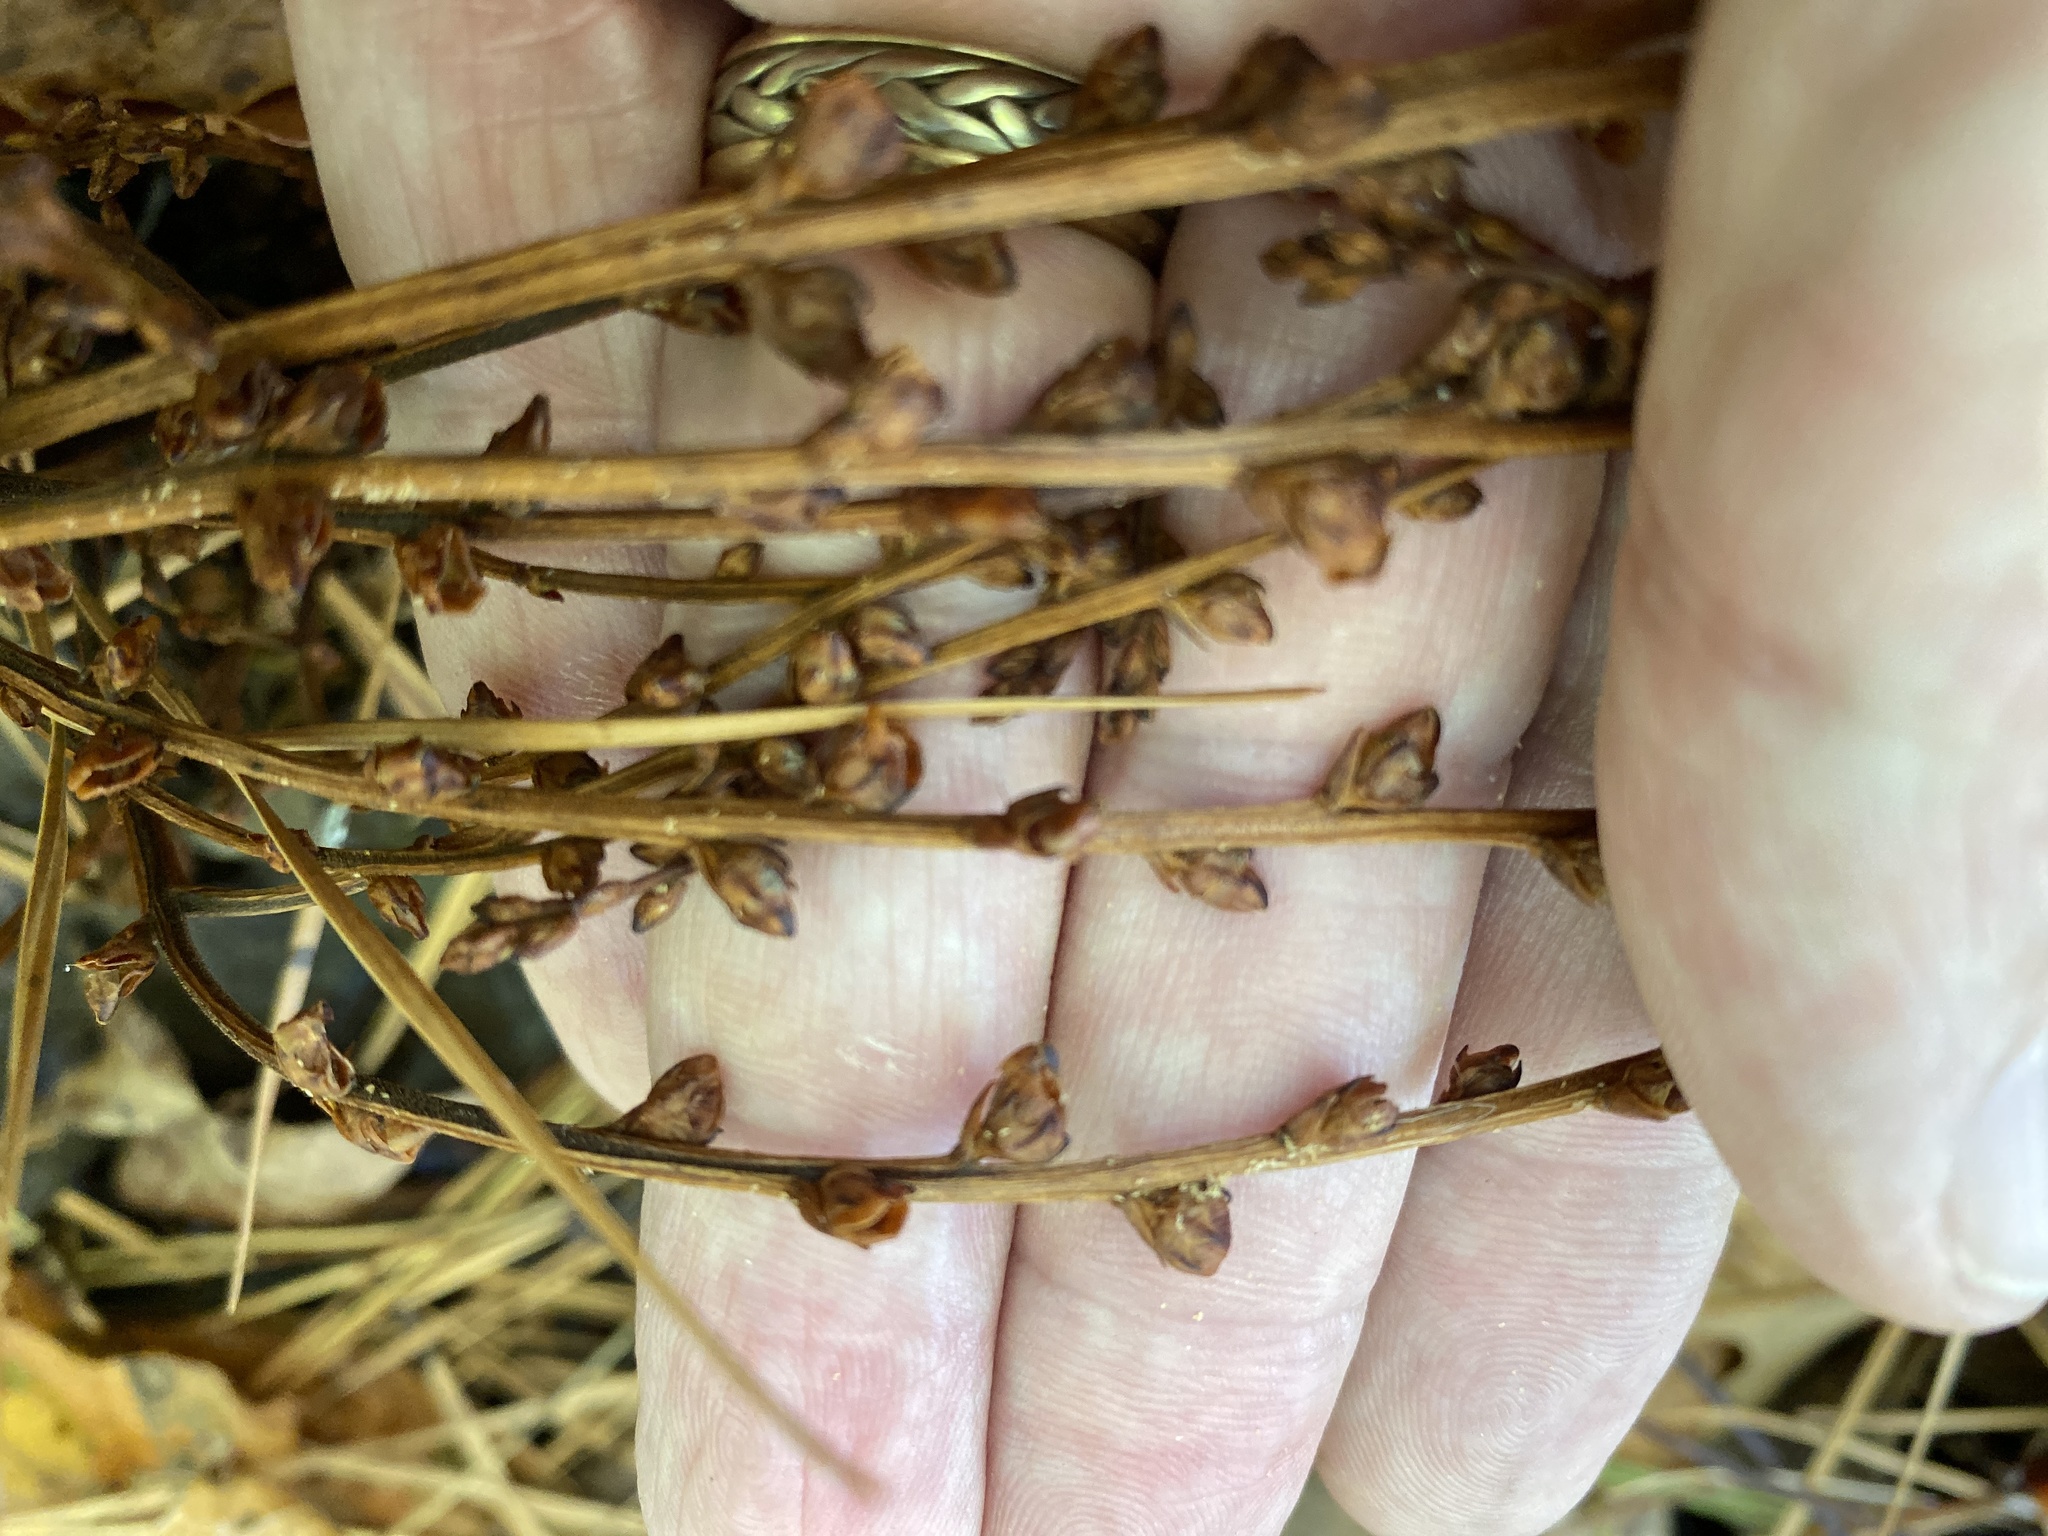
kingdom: Plantae
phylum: Tracheophyta
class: Magnoliopsida
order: Lamiales
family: Orobanchaceae
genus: Epifagus
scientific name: Epifagus virginiana
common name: Beechdrops
